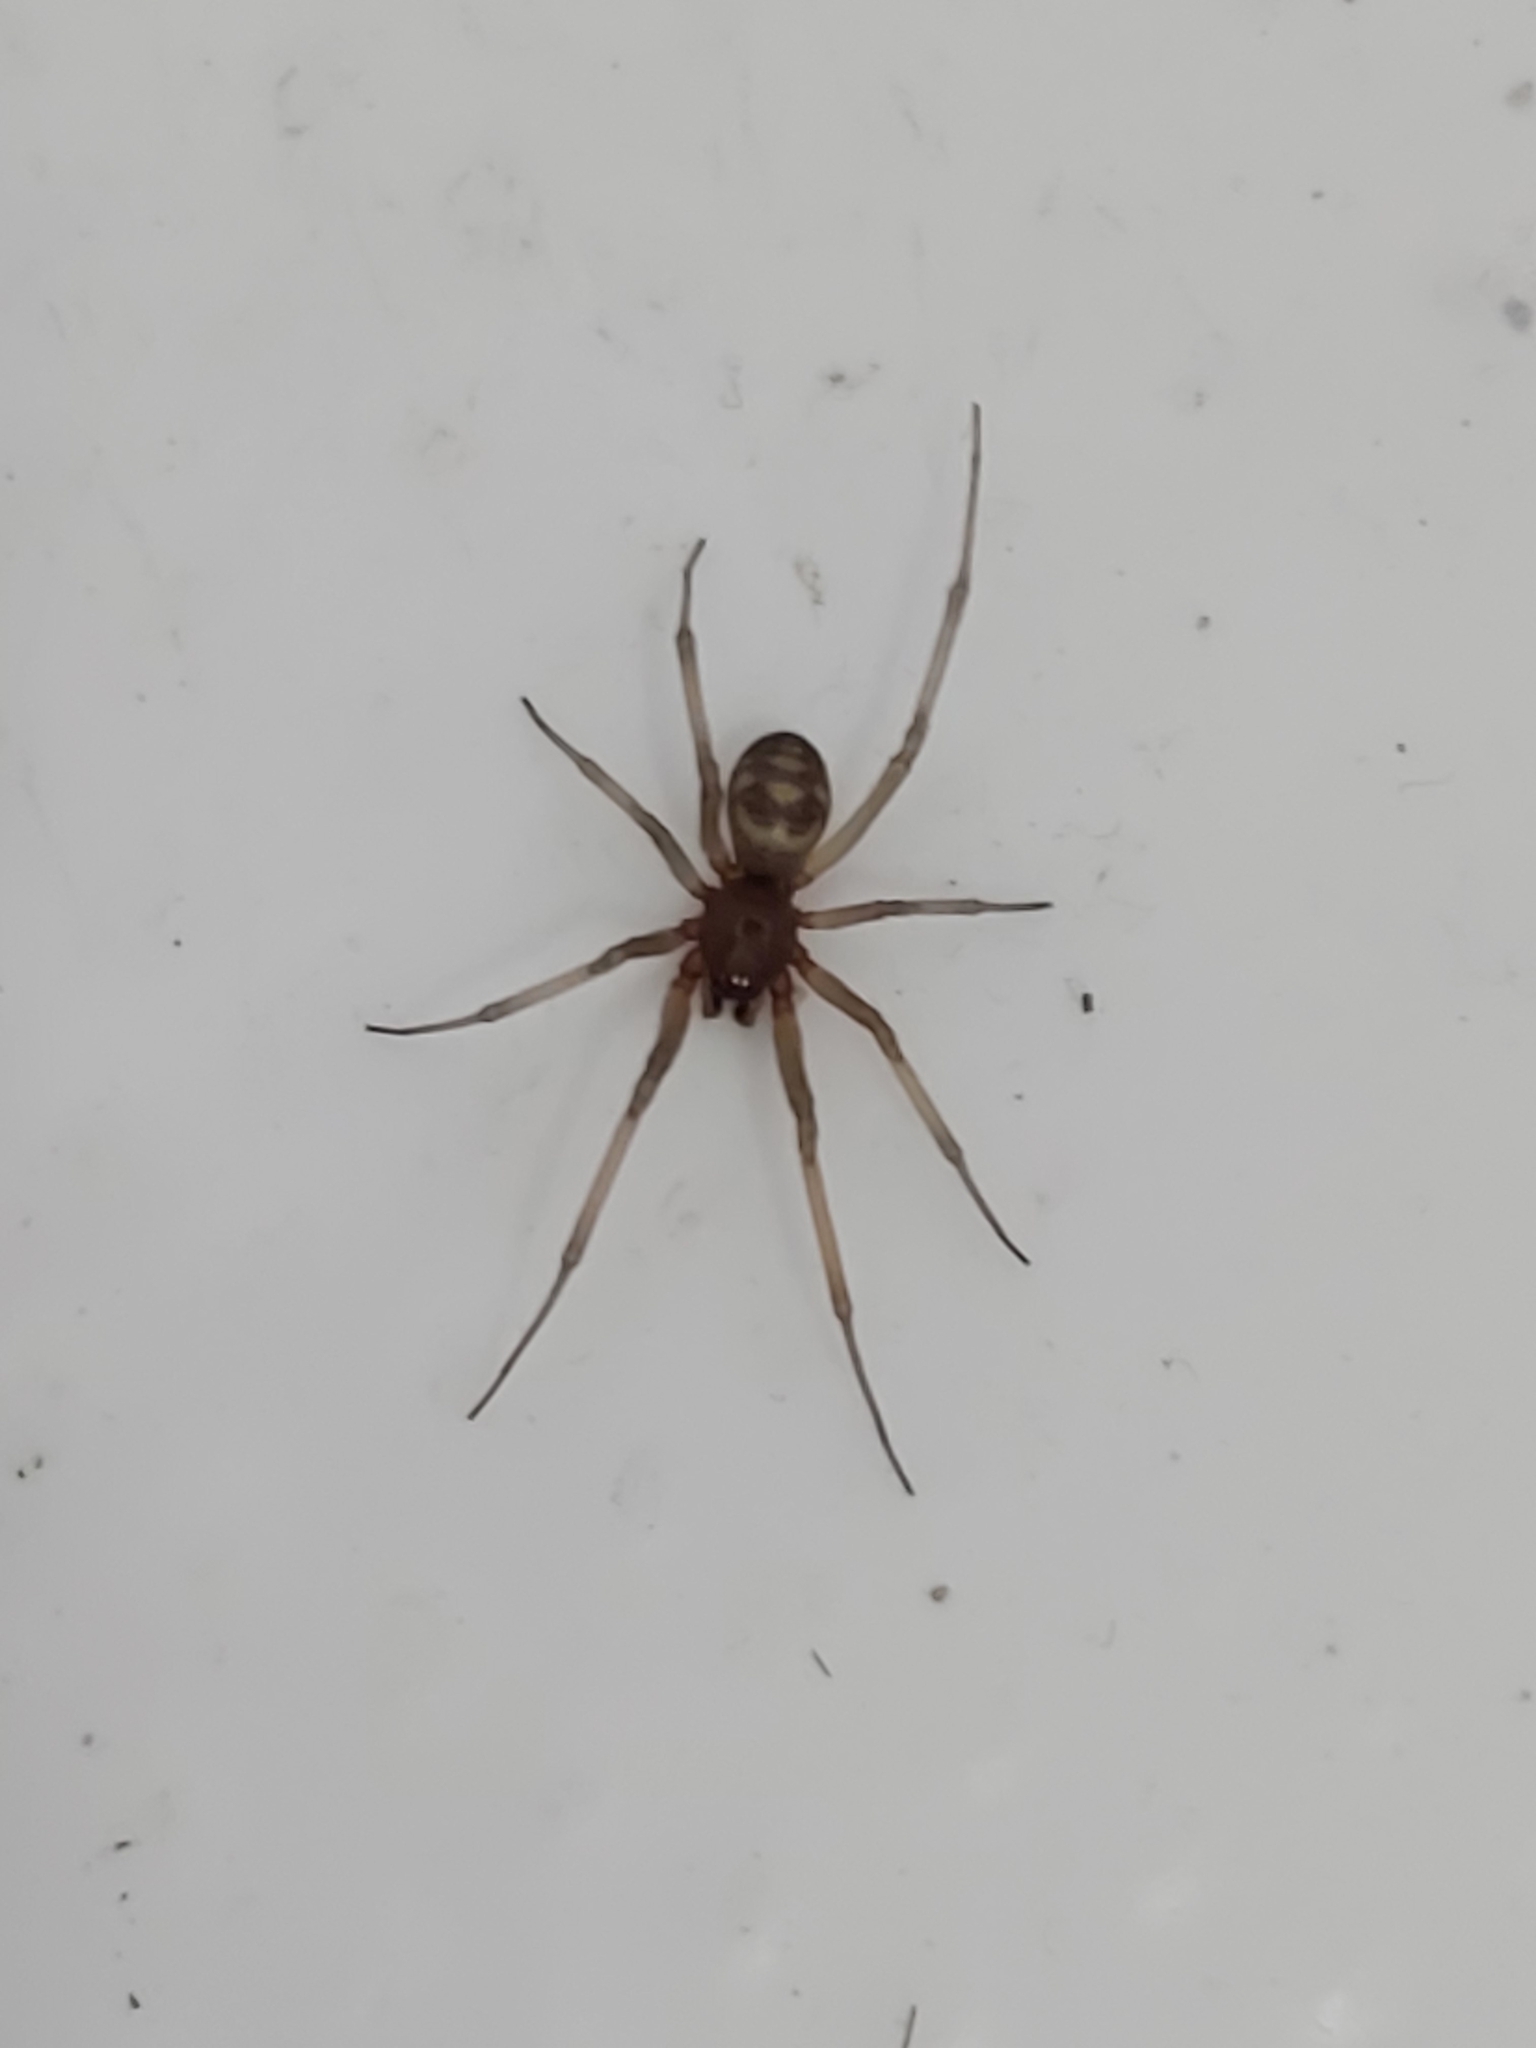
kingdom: Animalia
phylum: Arthropoda
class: Arachnida
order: Araneae
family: Theridiidae
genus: Steatoda
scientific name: Steatoda grossa
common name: False black widow
